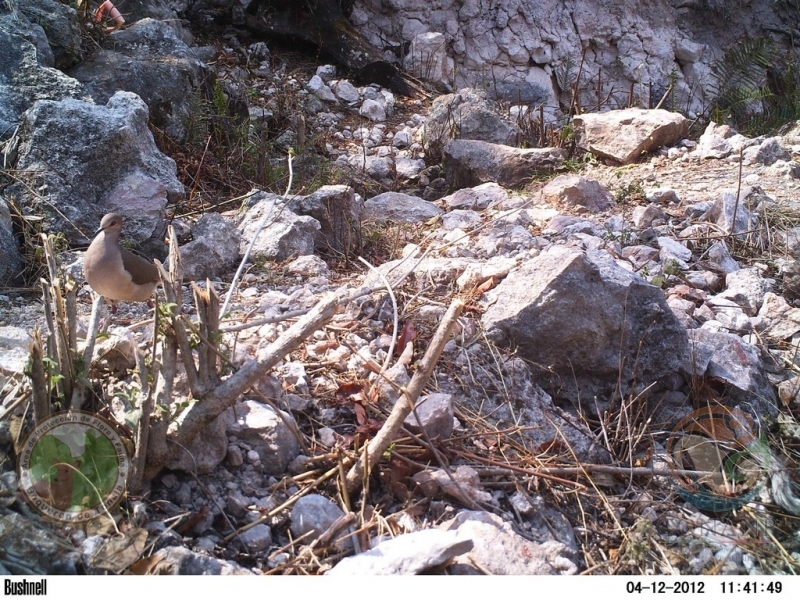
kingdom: Animalia
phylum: Chordata
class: Aves
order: Columbiformes
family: Columbidae
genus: Leptotila
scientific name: Leptotila verreauxi
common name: White-tipped dove
